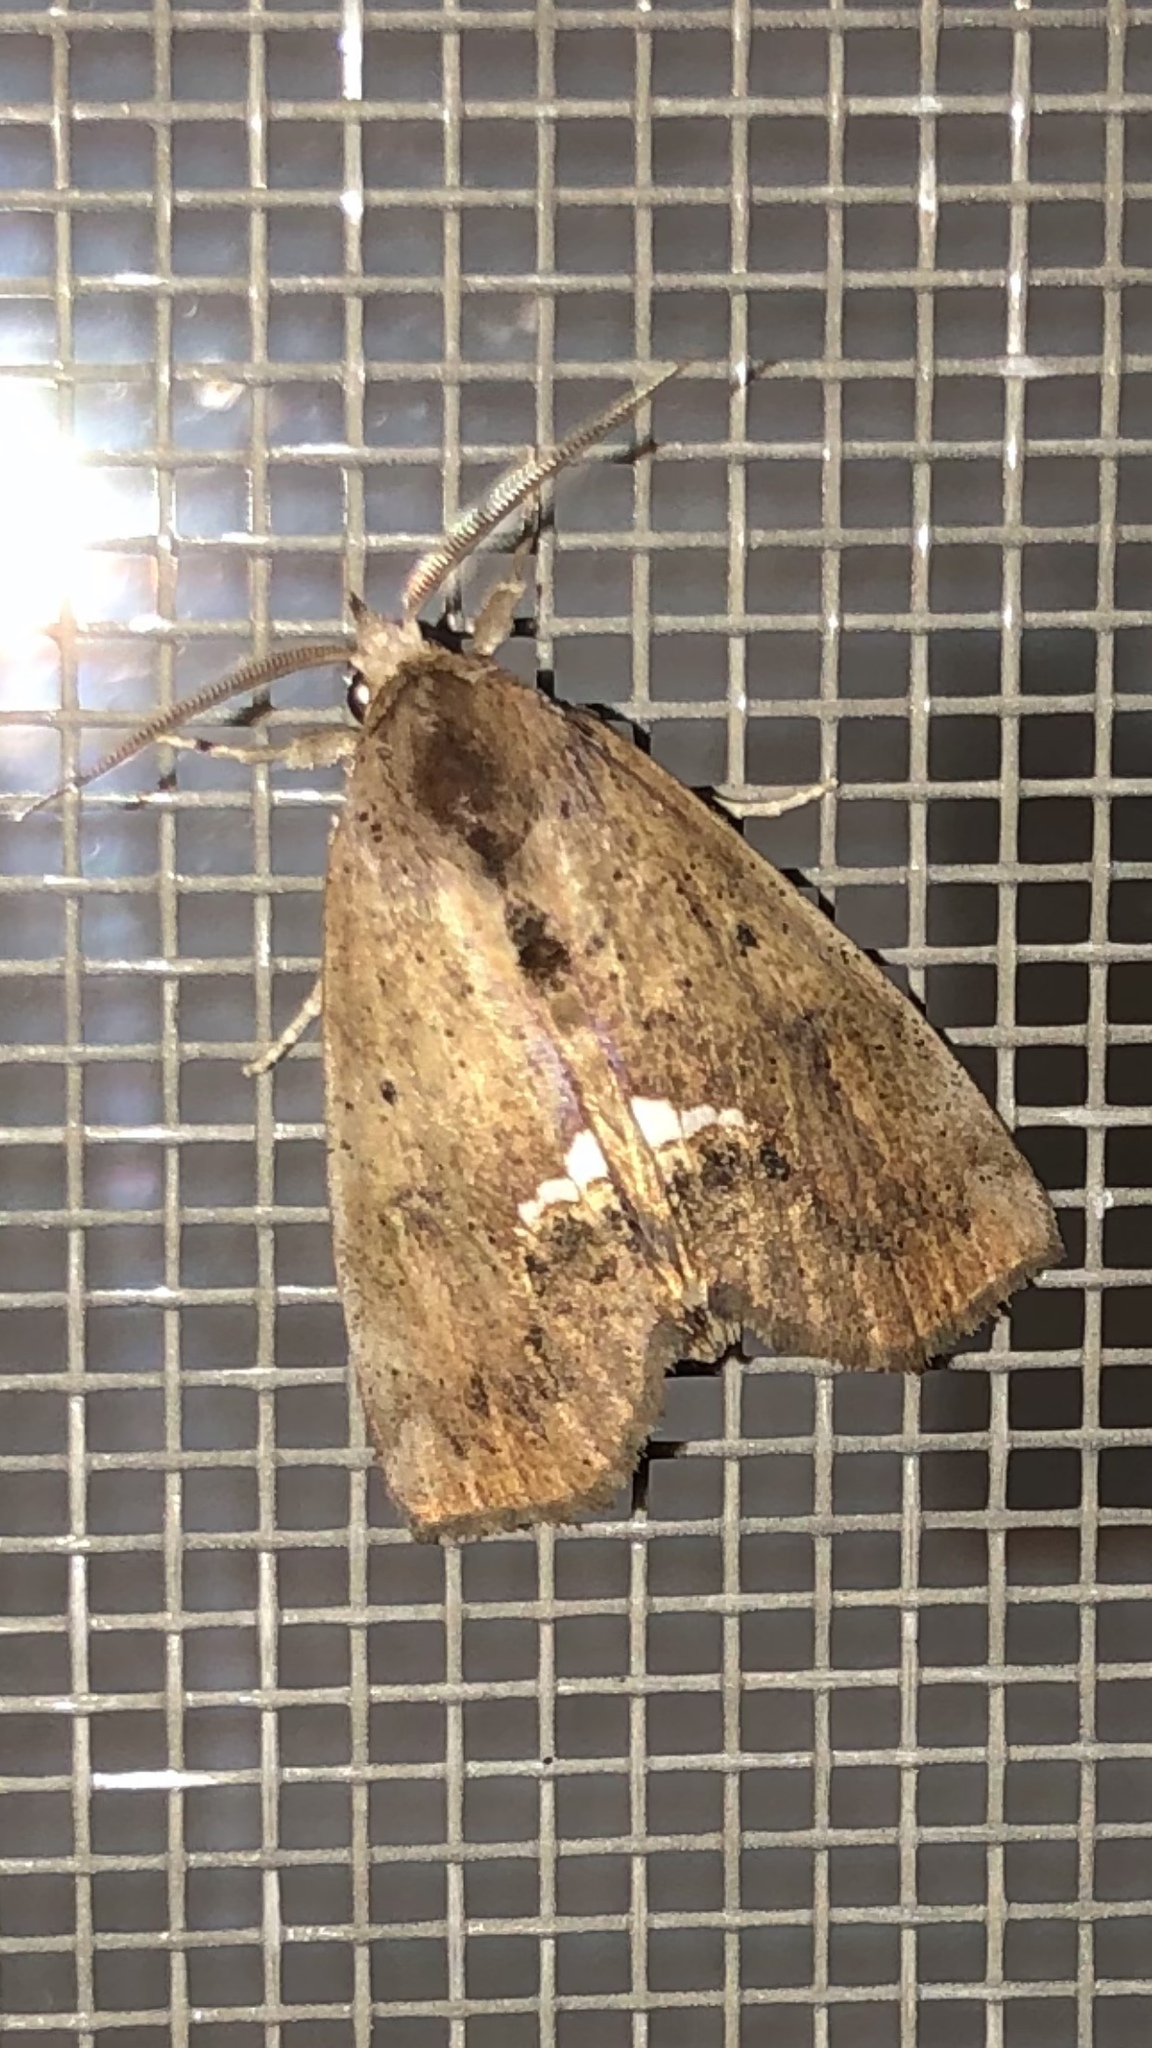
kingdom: Animalia
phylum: Arthropoda
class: Insecta
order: Lepidoptera
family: Erebidae
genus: Hypsoropha
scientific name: Hypsoropha hormos
